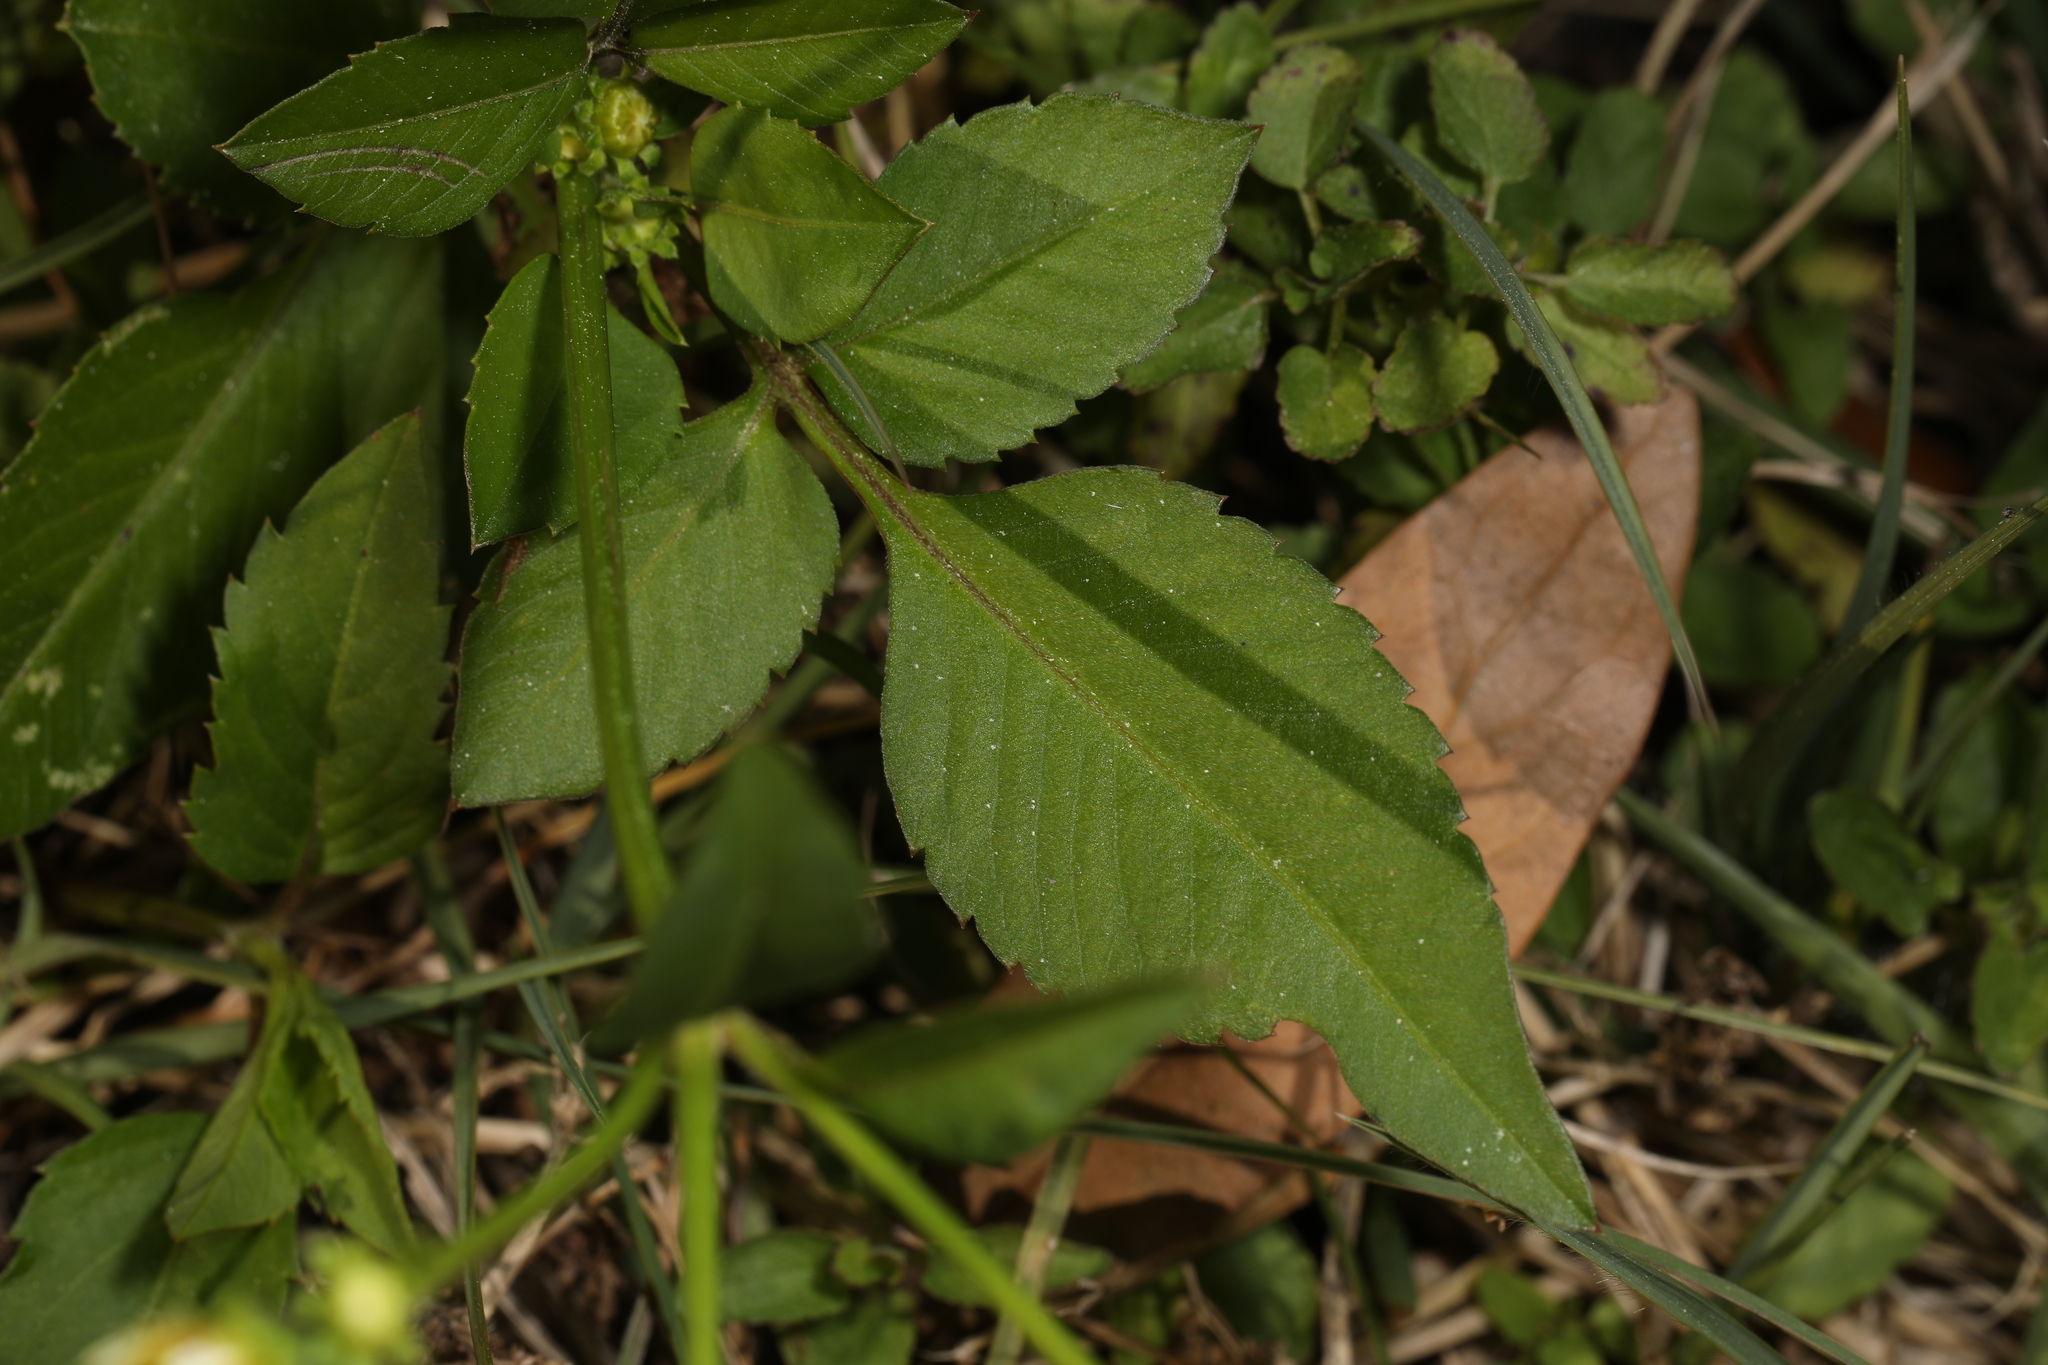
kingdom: Plantae
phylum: Tracheophyta
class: Magnoliopsida
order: Asterales
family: Asteraceae
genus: Bidens
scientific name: Bidens alba
